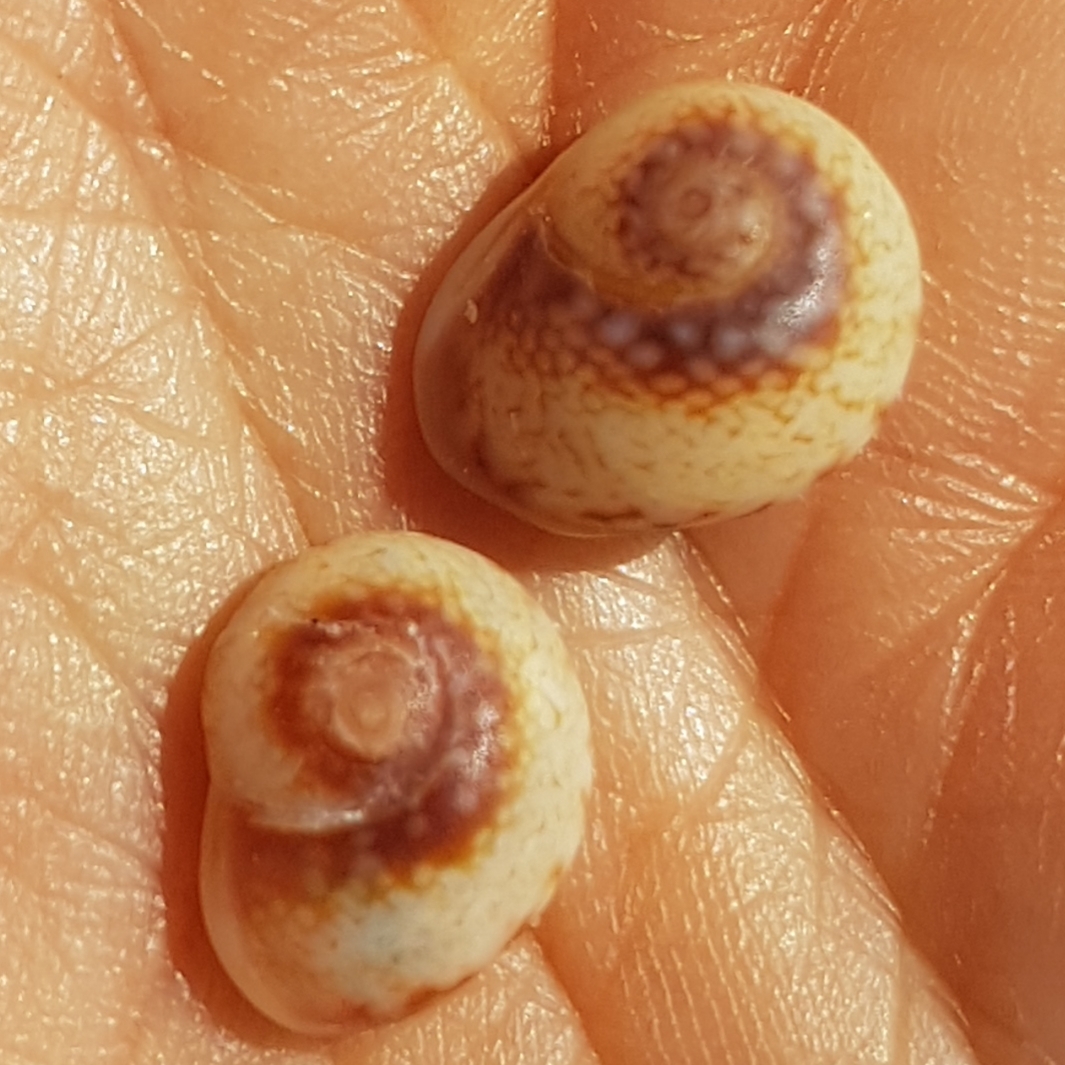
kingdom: Animalia
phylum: Mollusca
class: Gastropoda
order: Neogastropoda
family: Nassariidae
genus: Tritia
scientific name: Tritia neritea
